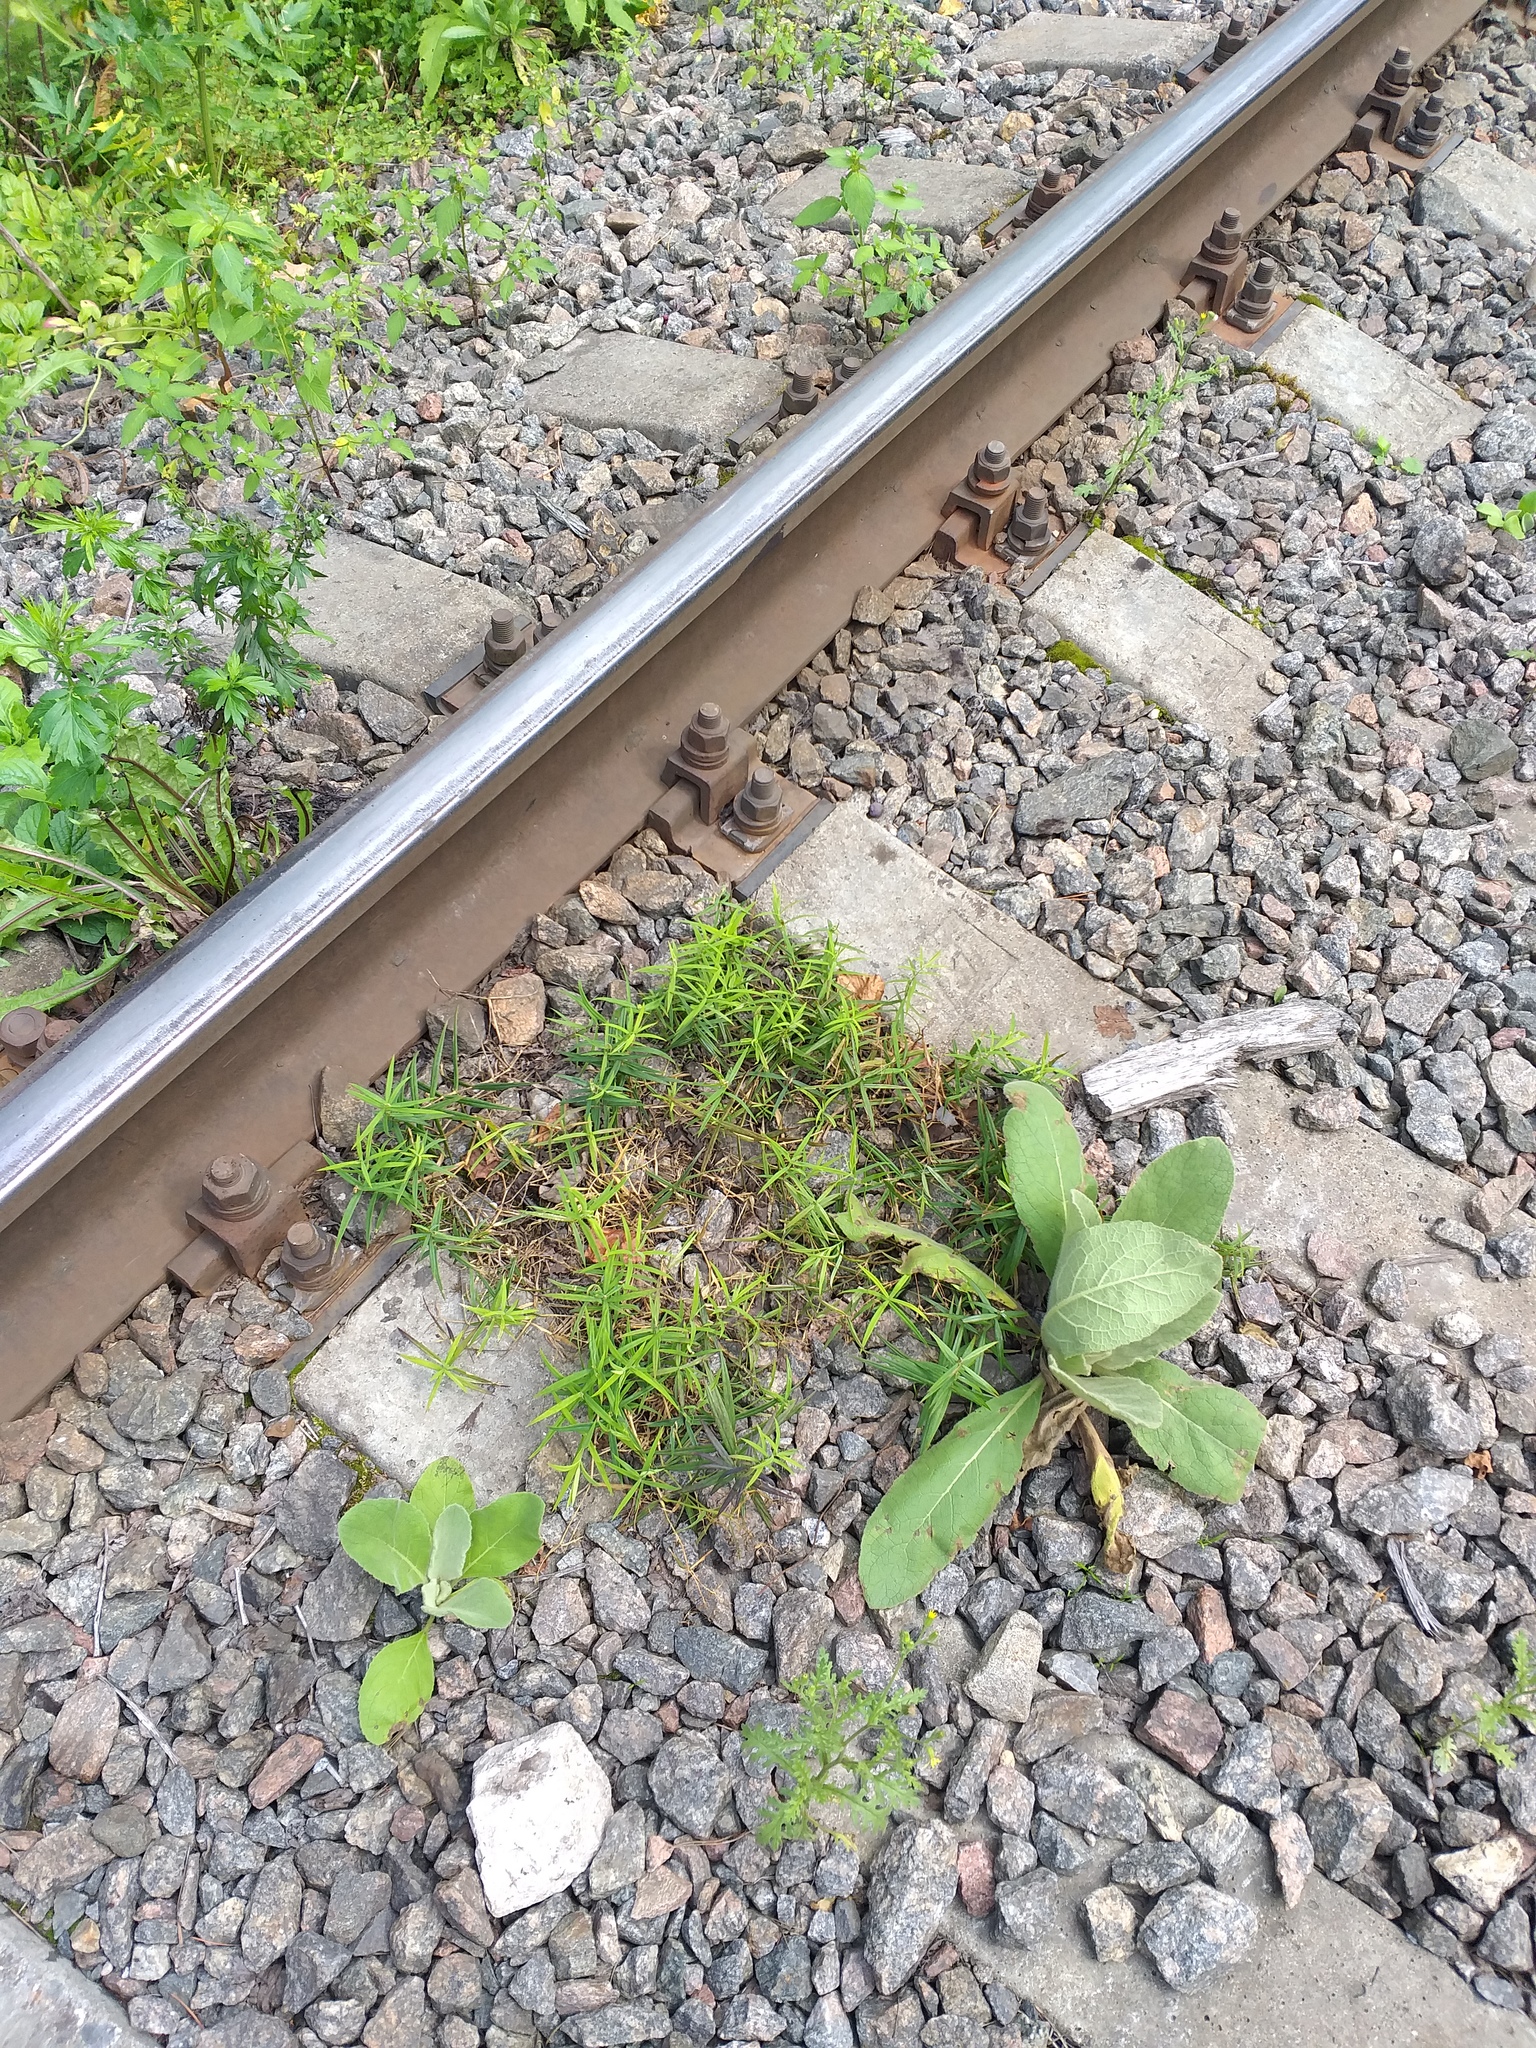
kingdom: Plantae
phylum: Tracheophyta
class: Magnoliopsida
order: Caryophyllales
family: Caryophyllaceae
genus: Rabelera
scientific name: Rabelera holostea
